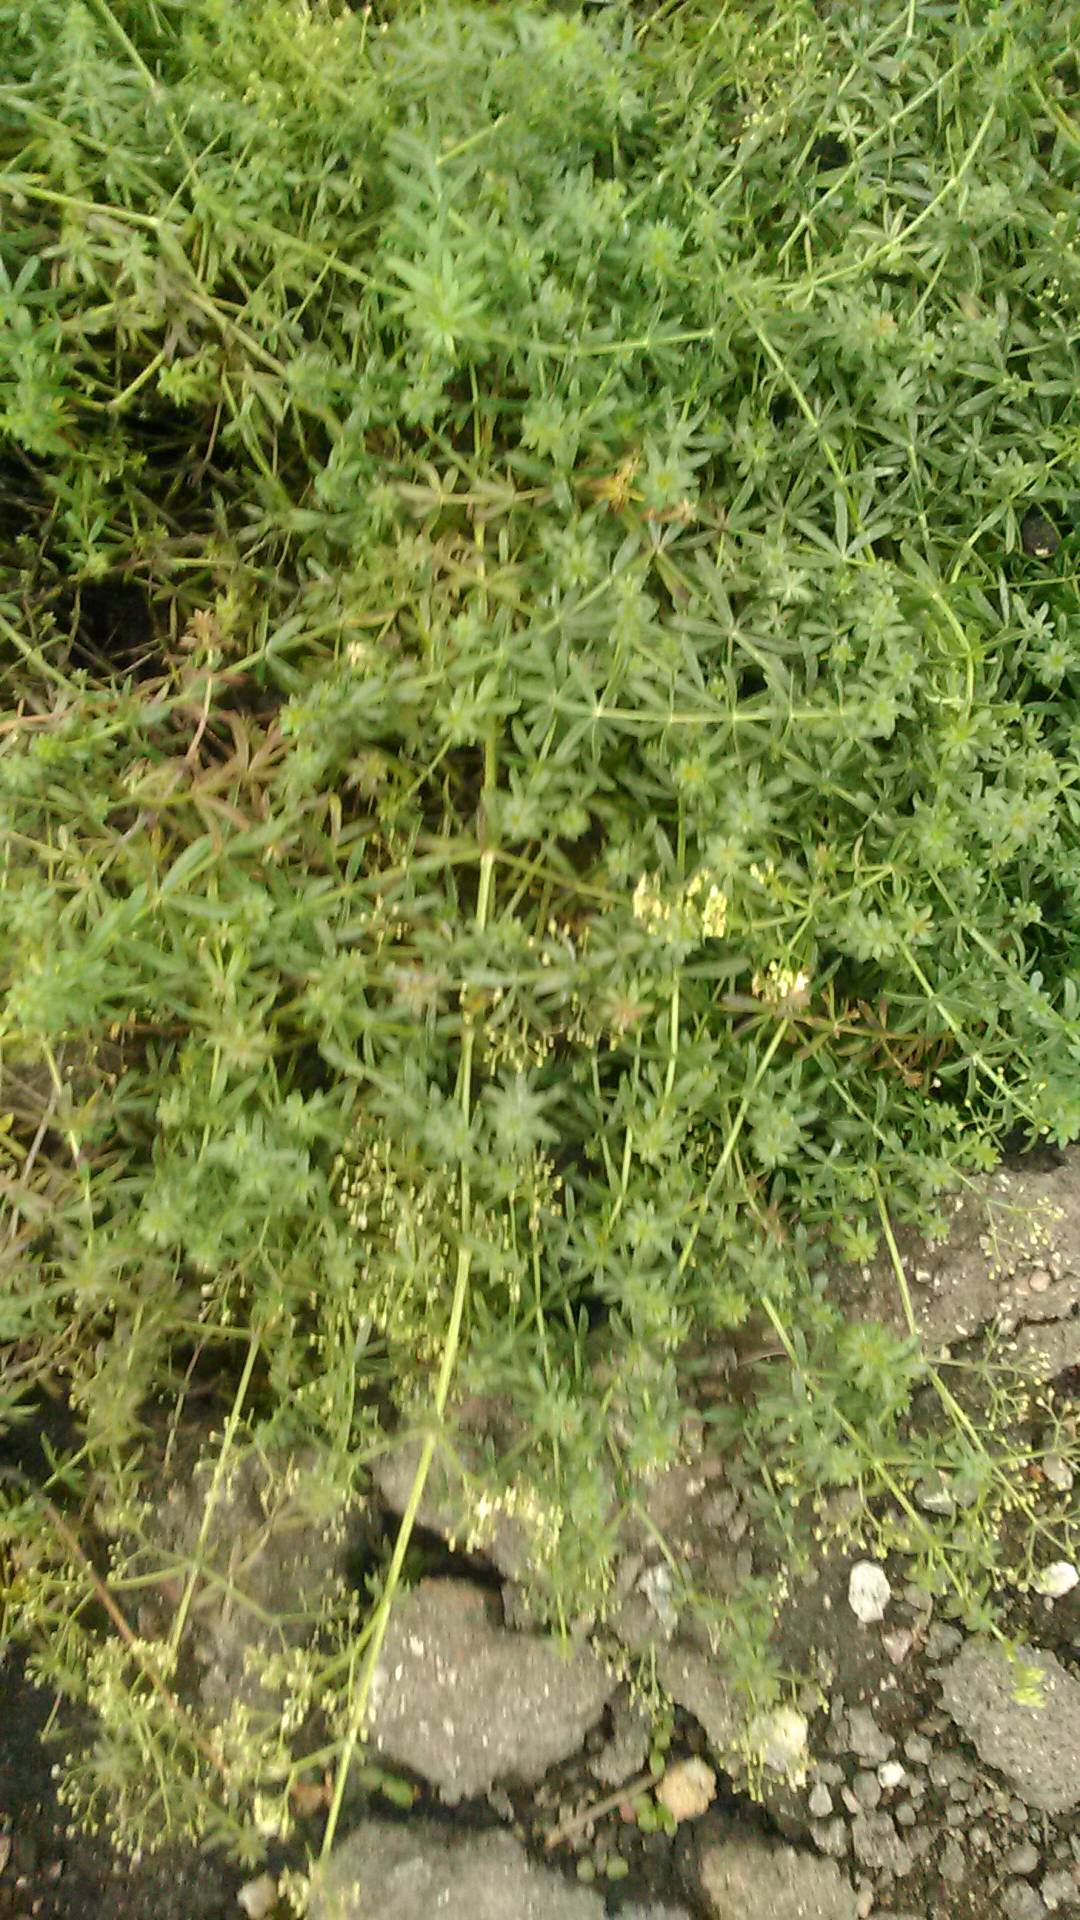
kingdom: Plantae
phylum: Tracheophyta
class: Magnoliopsida
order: Gentianales
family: Rubiaceae
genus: Galium
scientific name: Galium mollugo
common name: Hedge bedstraw
